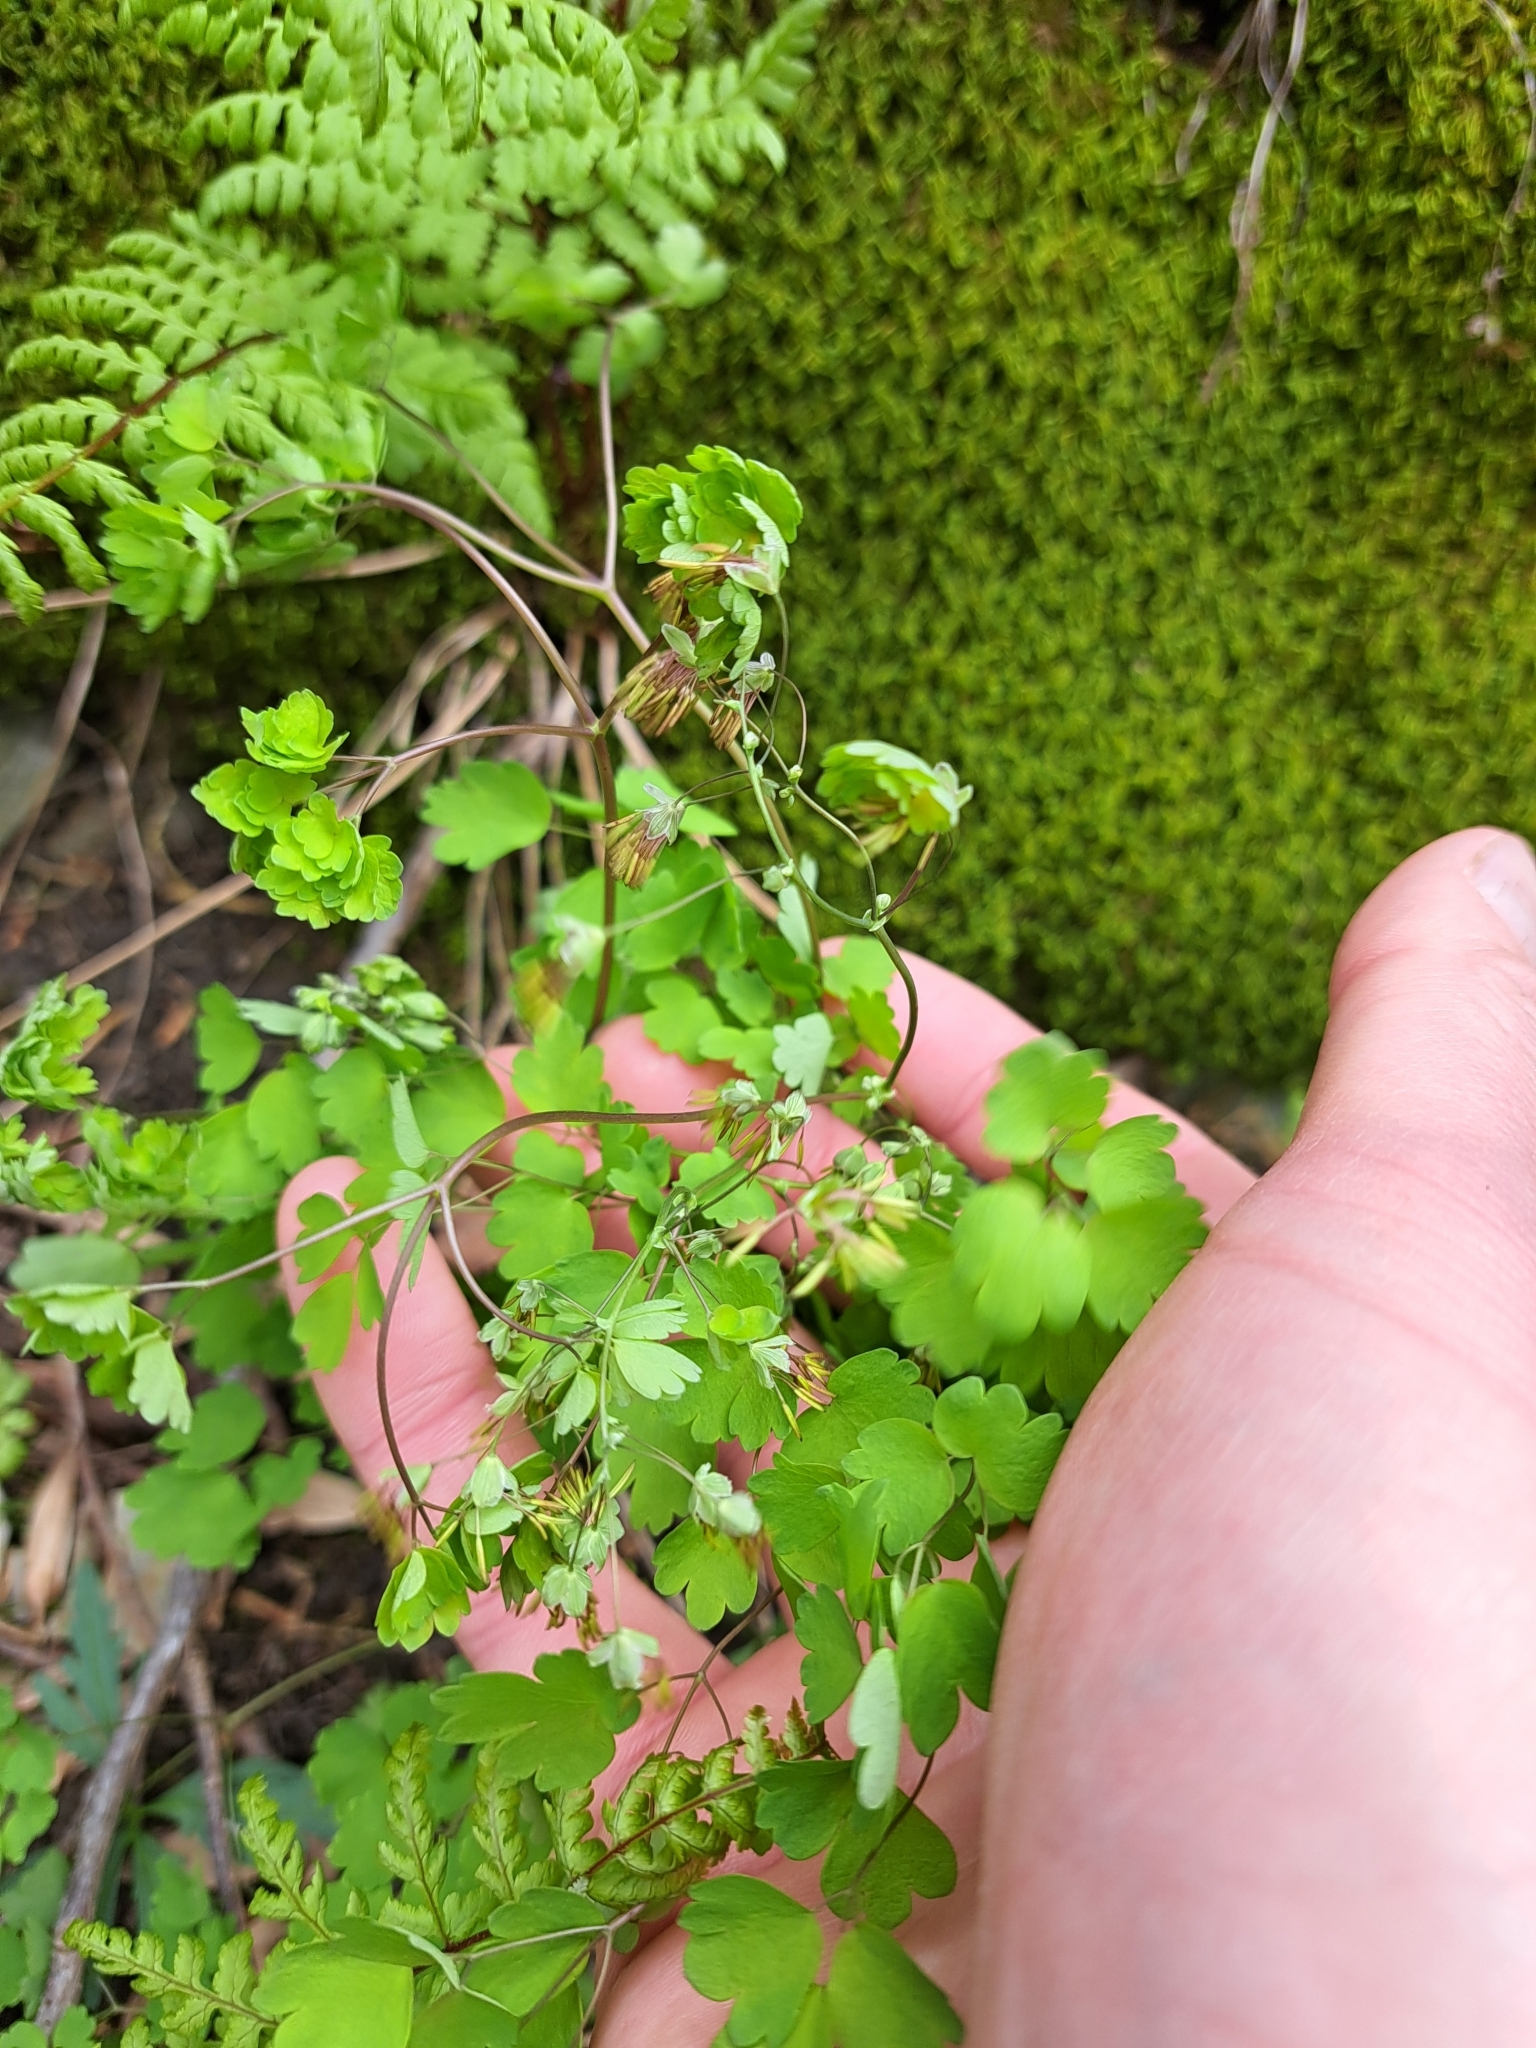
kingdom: Plantae
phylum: Tracheophyta
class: Magnoliopsida
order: Ranunculales
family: Ranunculaceae
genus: Thalictrum
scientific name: Thalictrum dioicum
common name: Early meadow-rue
